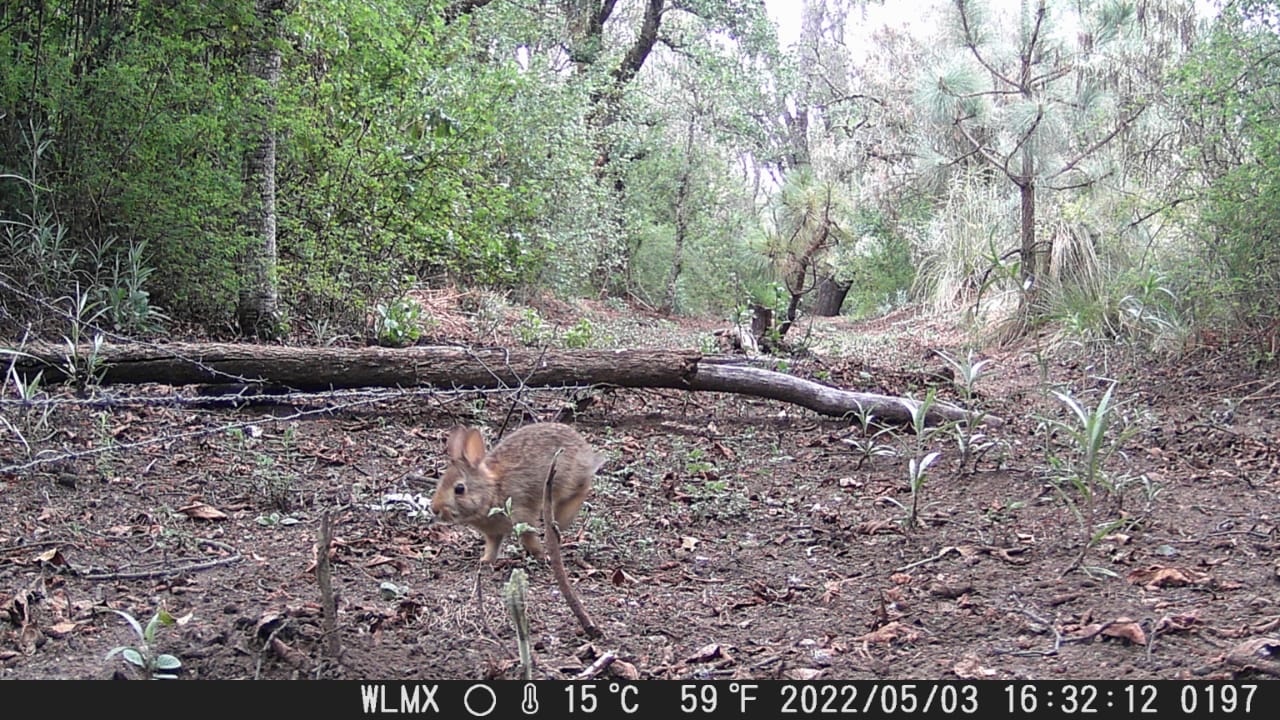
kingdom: Animalia
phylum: Chordata
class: Mammalia
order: Lagomorpha
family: Leporidae
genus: Sylvilagus
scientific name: Sylvilagus floridanus
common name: Eastern cottontail
